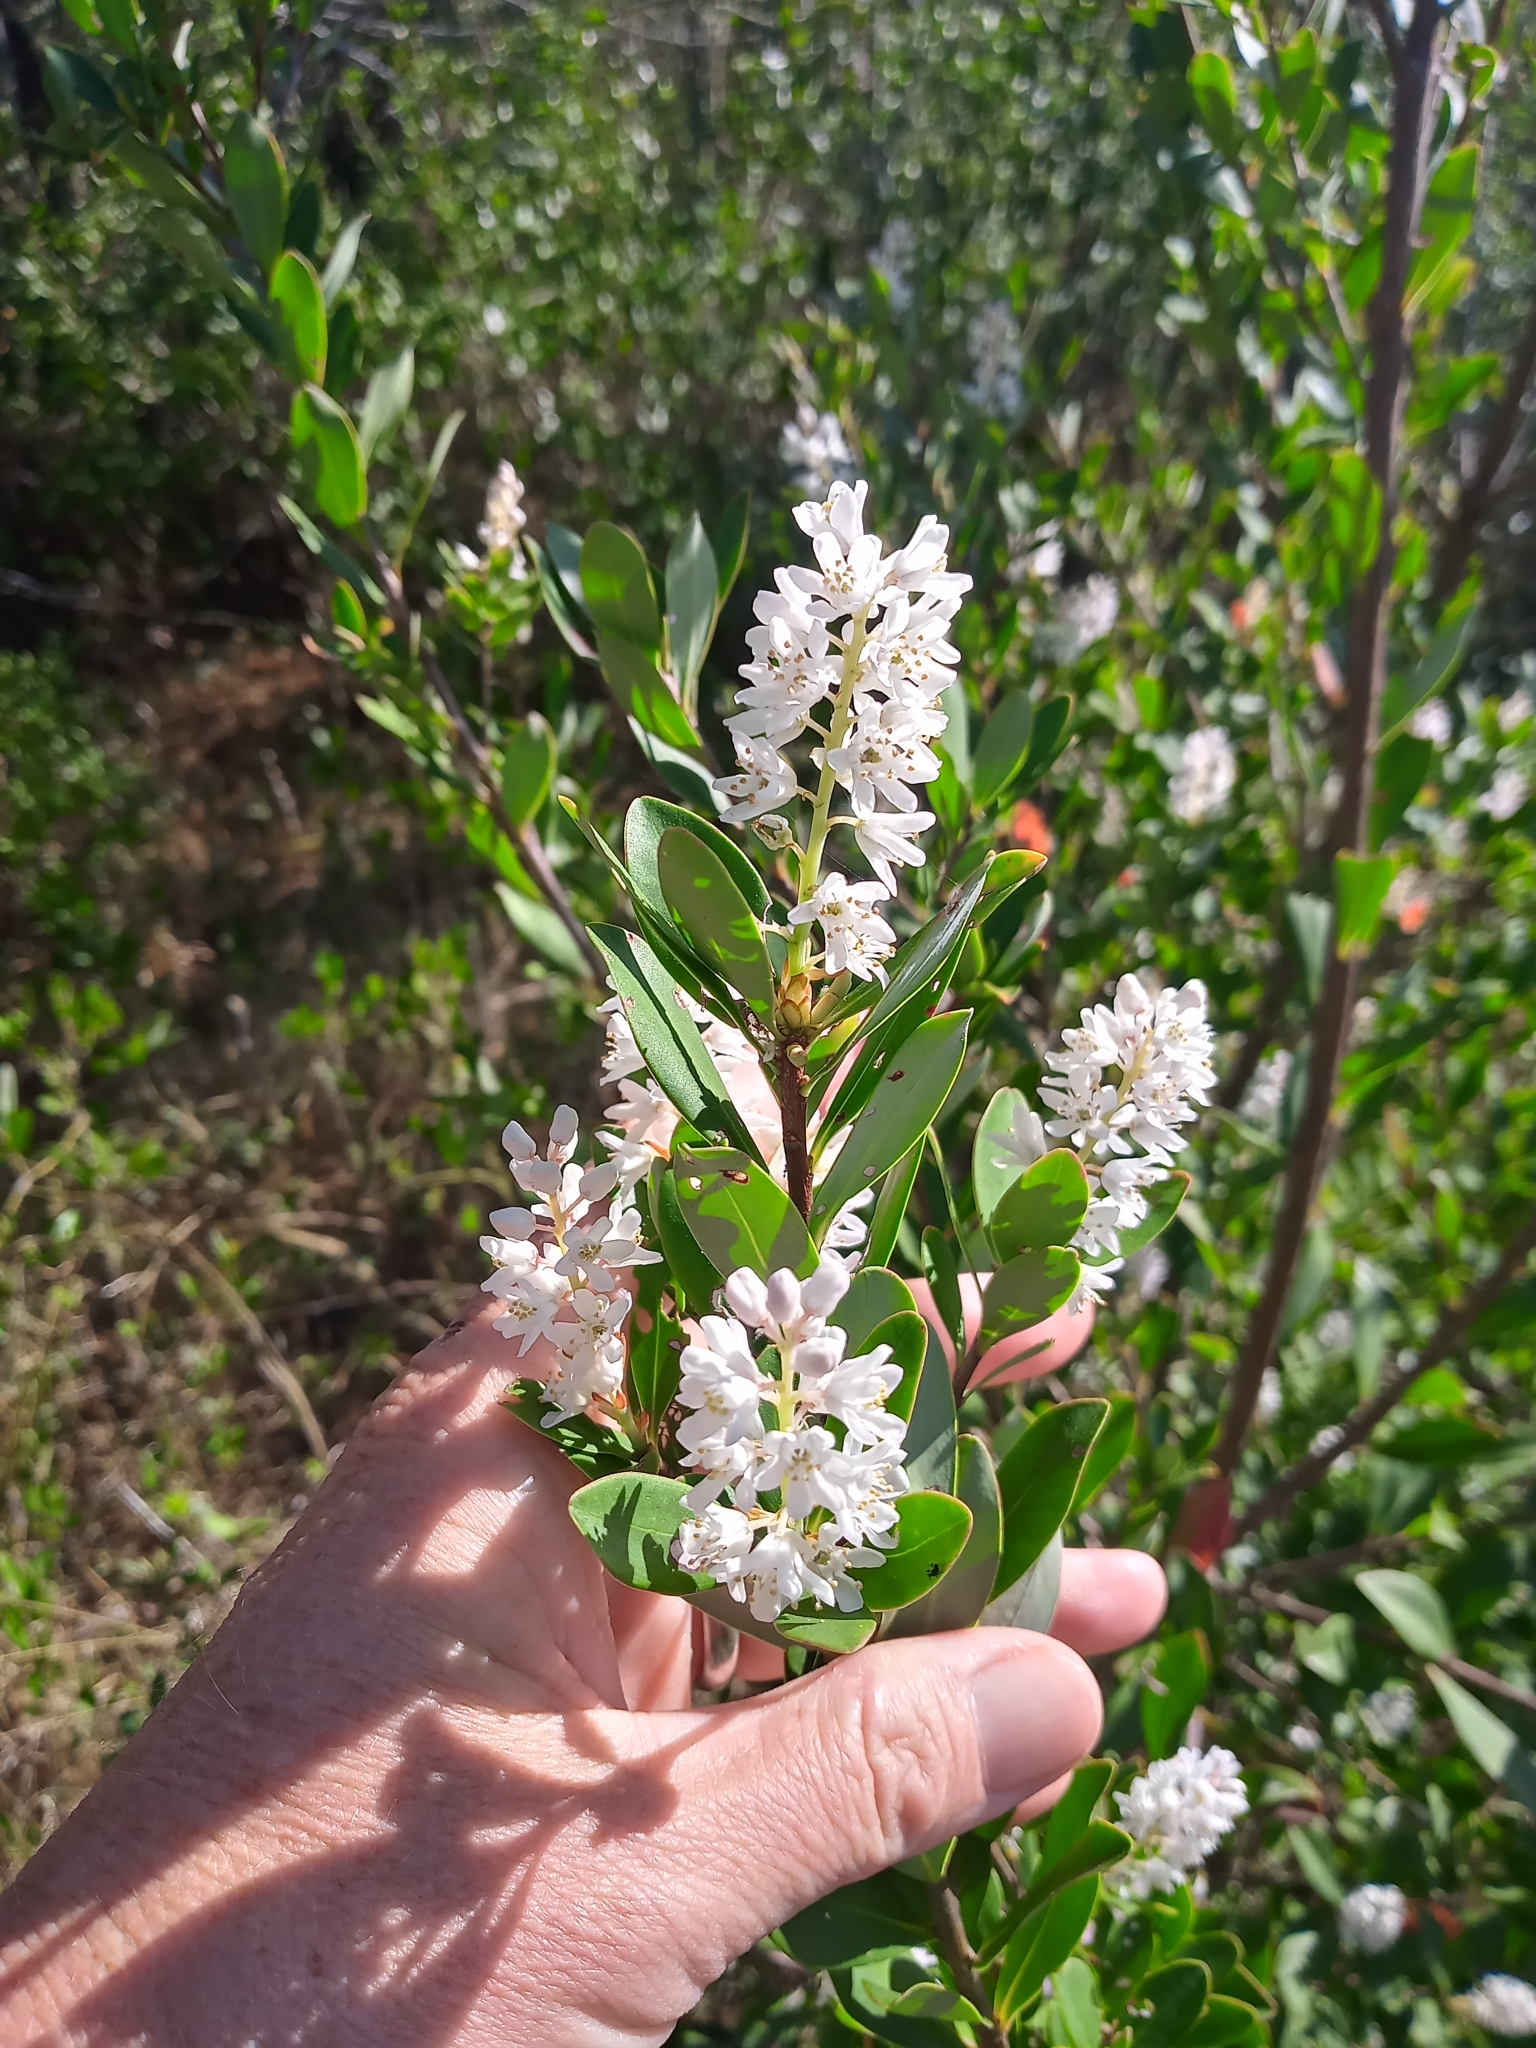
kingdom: Plantae
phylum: Tracheophyta
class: Magnoliopsida
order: Ericales
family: Cyrillaceae
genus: Cliftonia
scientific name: Cliftonia monophylla
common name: Titi
